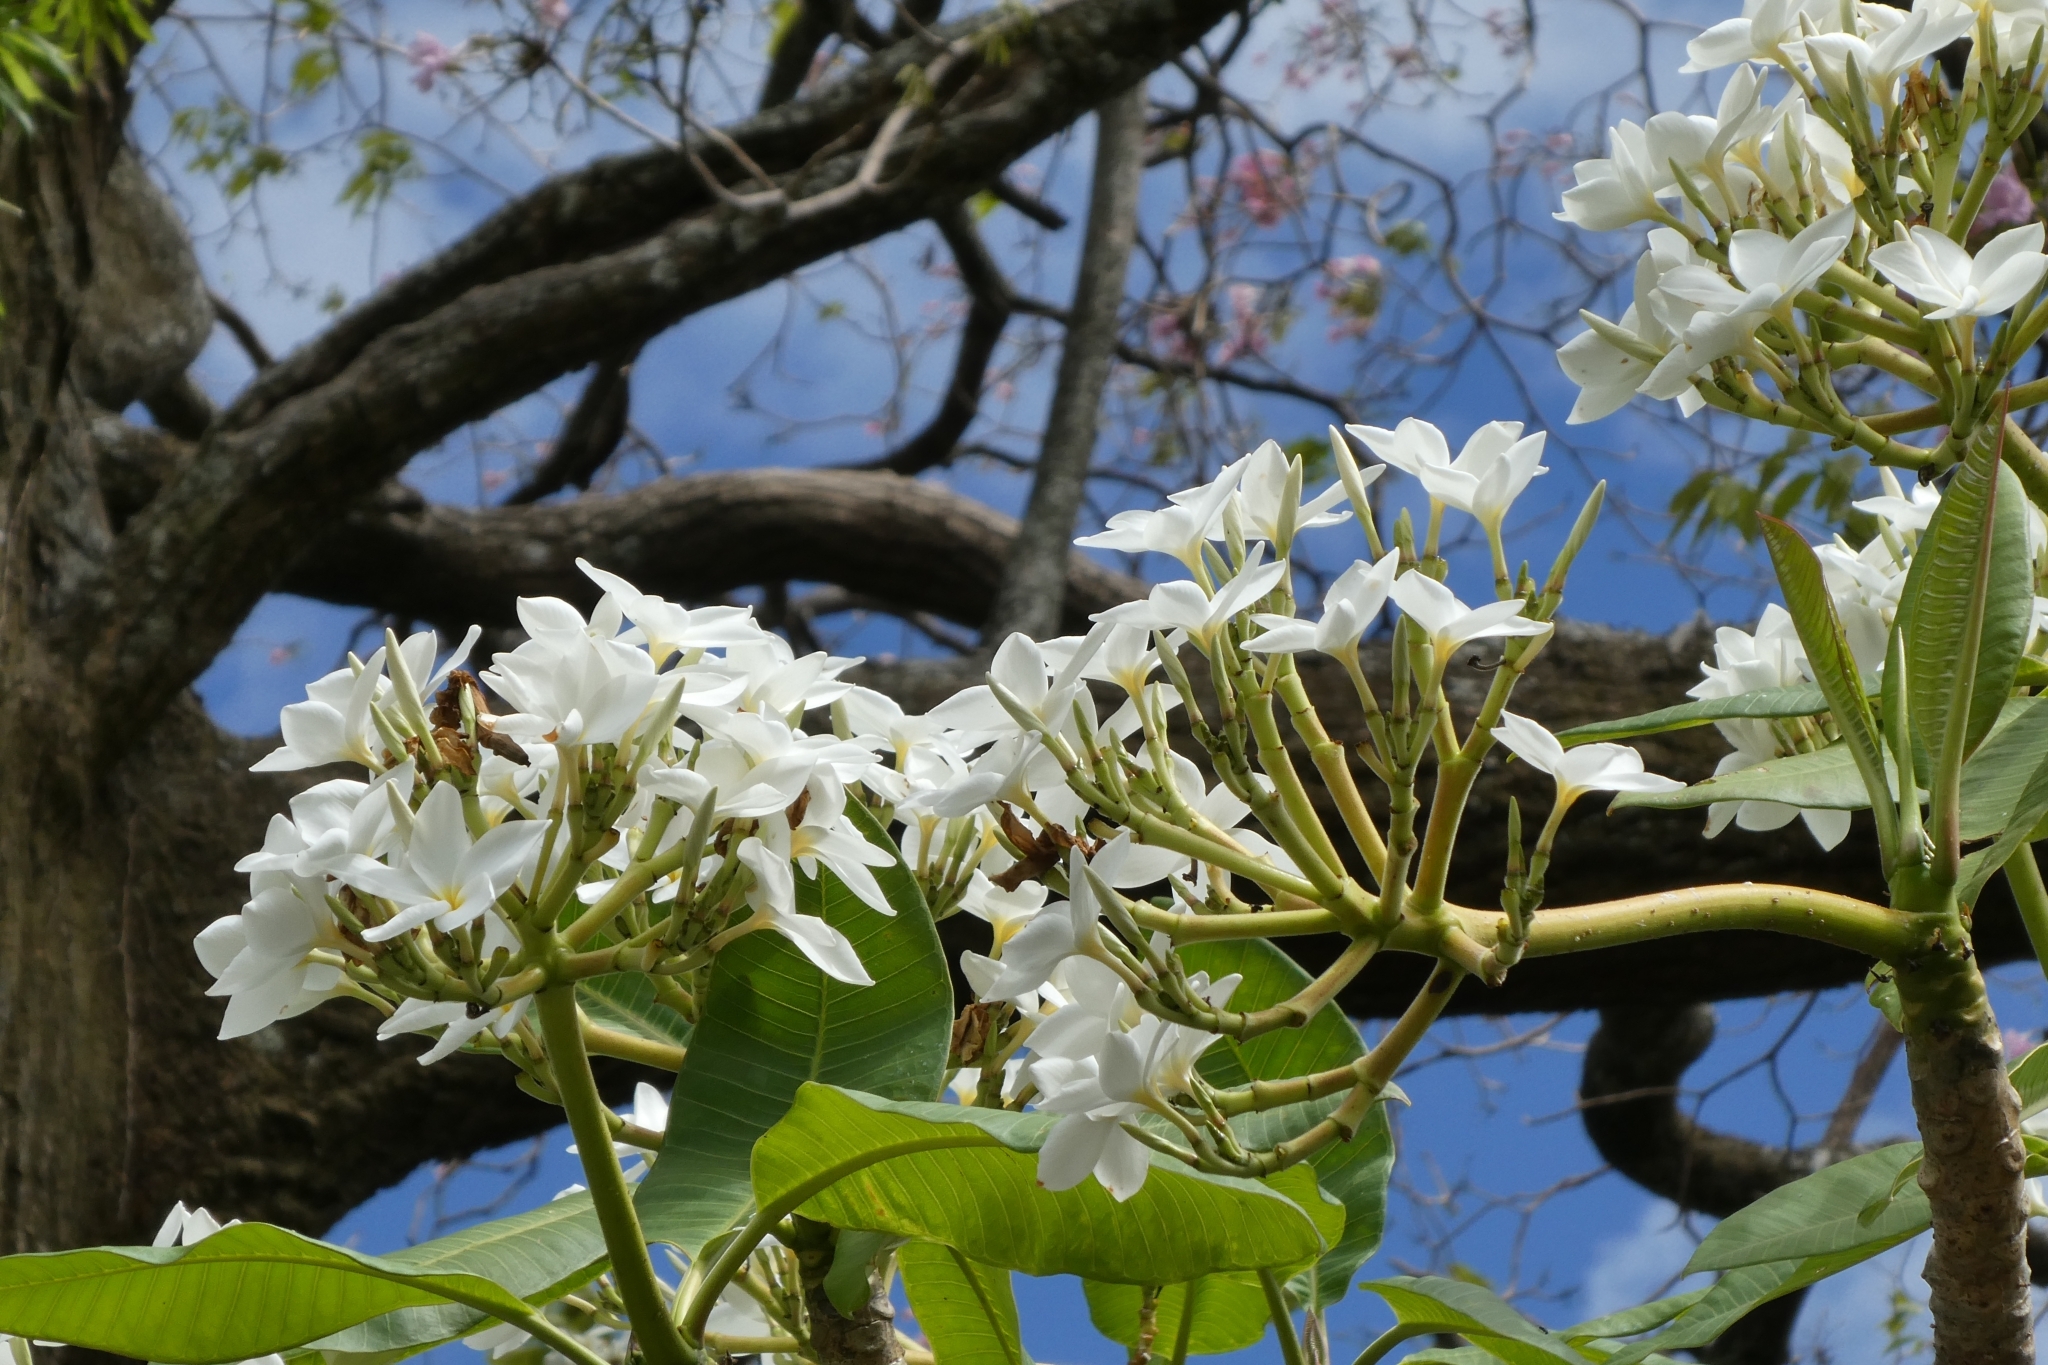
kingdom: Plantae
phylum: Tracheophyta
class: Magnoliopsida
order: Gentianales
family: Apocynaceae
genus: Plumeria
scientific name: Plumeria rubra
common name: Pagoda-tree
